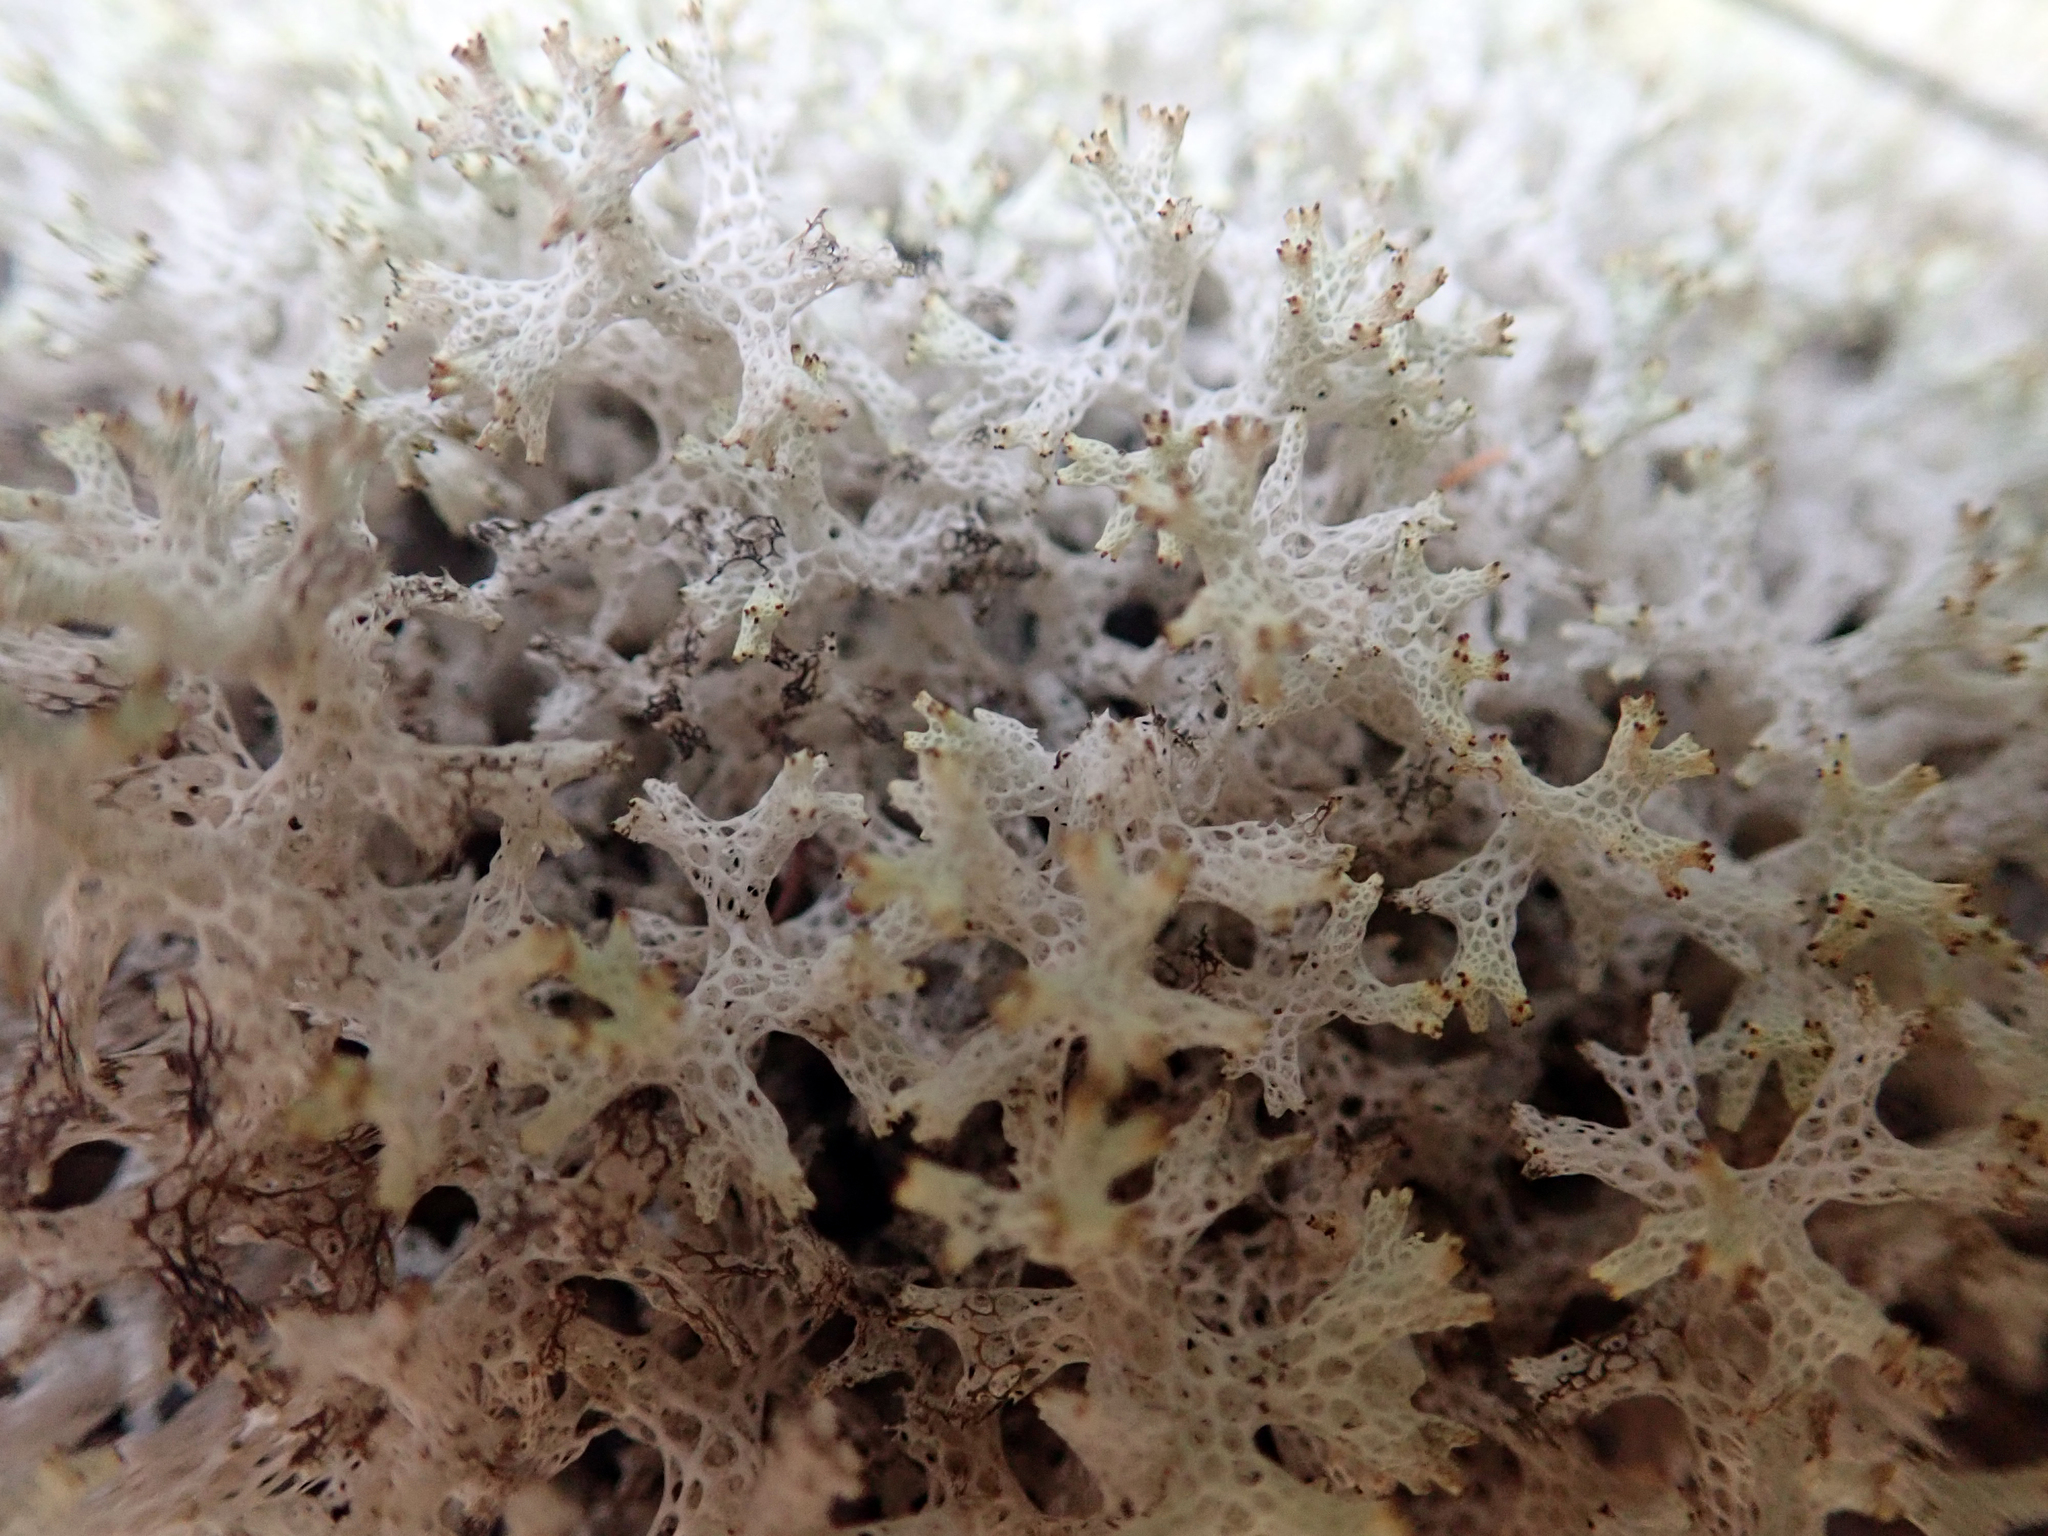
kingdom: Fungi
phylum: Ascomycota
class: Lecanoromycetes
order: Lecanorales
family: Cladoniaceae
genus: Pulchrocladia
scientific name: Pulchrocladia retipora
